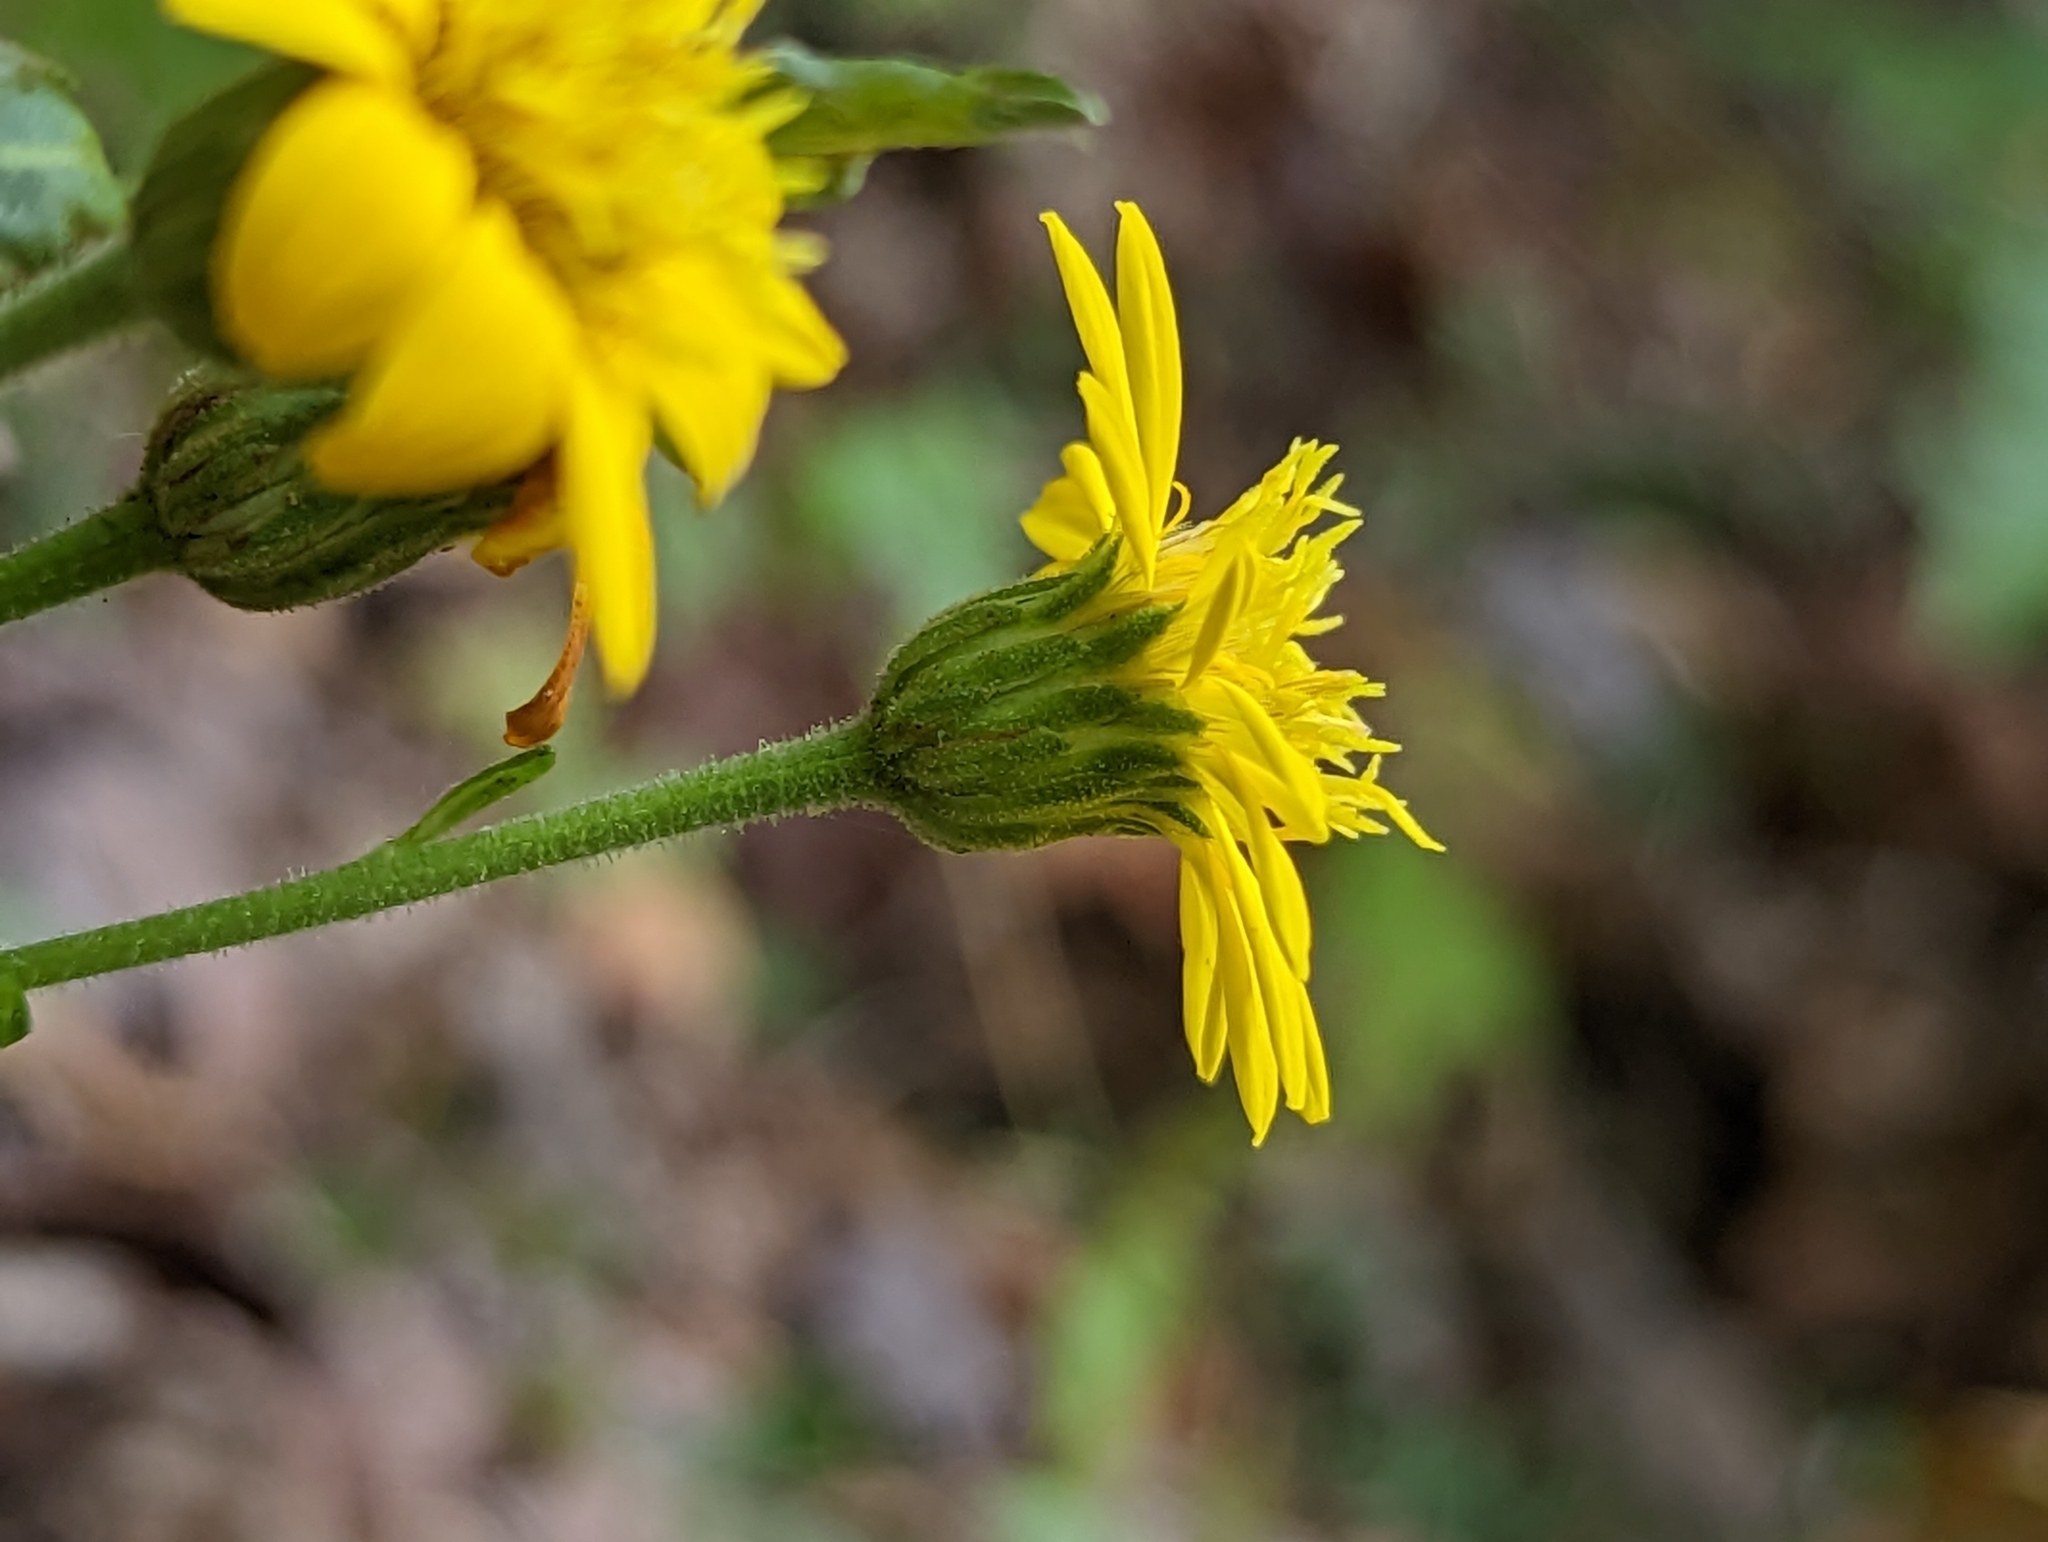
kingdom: Plantae
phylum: Tracheophyta
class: Magnoliopsida
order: Asterales
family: Asteraceae
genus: Chrysopsis
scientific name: Chrysopsis mariana
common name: Maryland golden-aster
